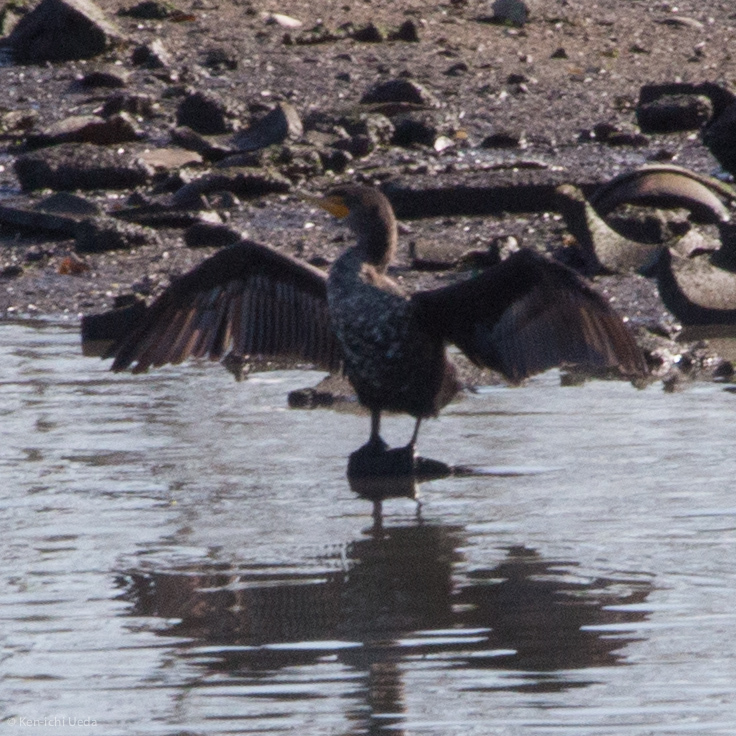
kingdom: Animalia
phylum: Chordata
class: Aves
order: Suliformes
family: Phalacrocoracidae
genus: Phalacrocorax
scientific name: Phalacrocorax auritus
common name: Double-crested cormorant
